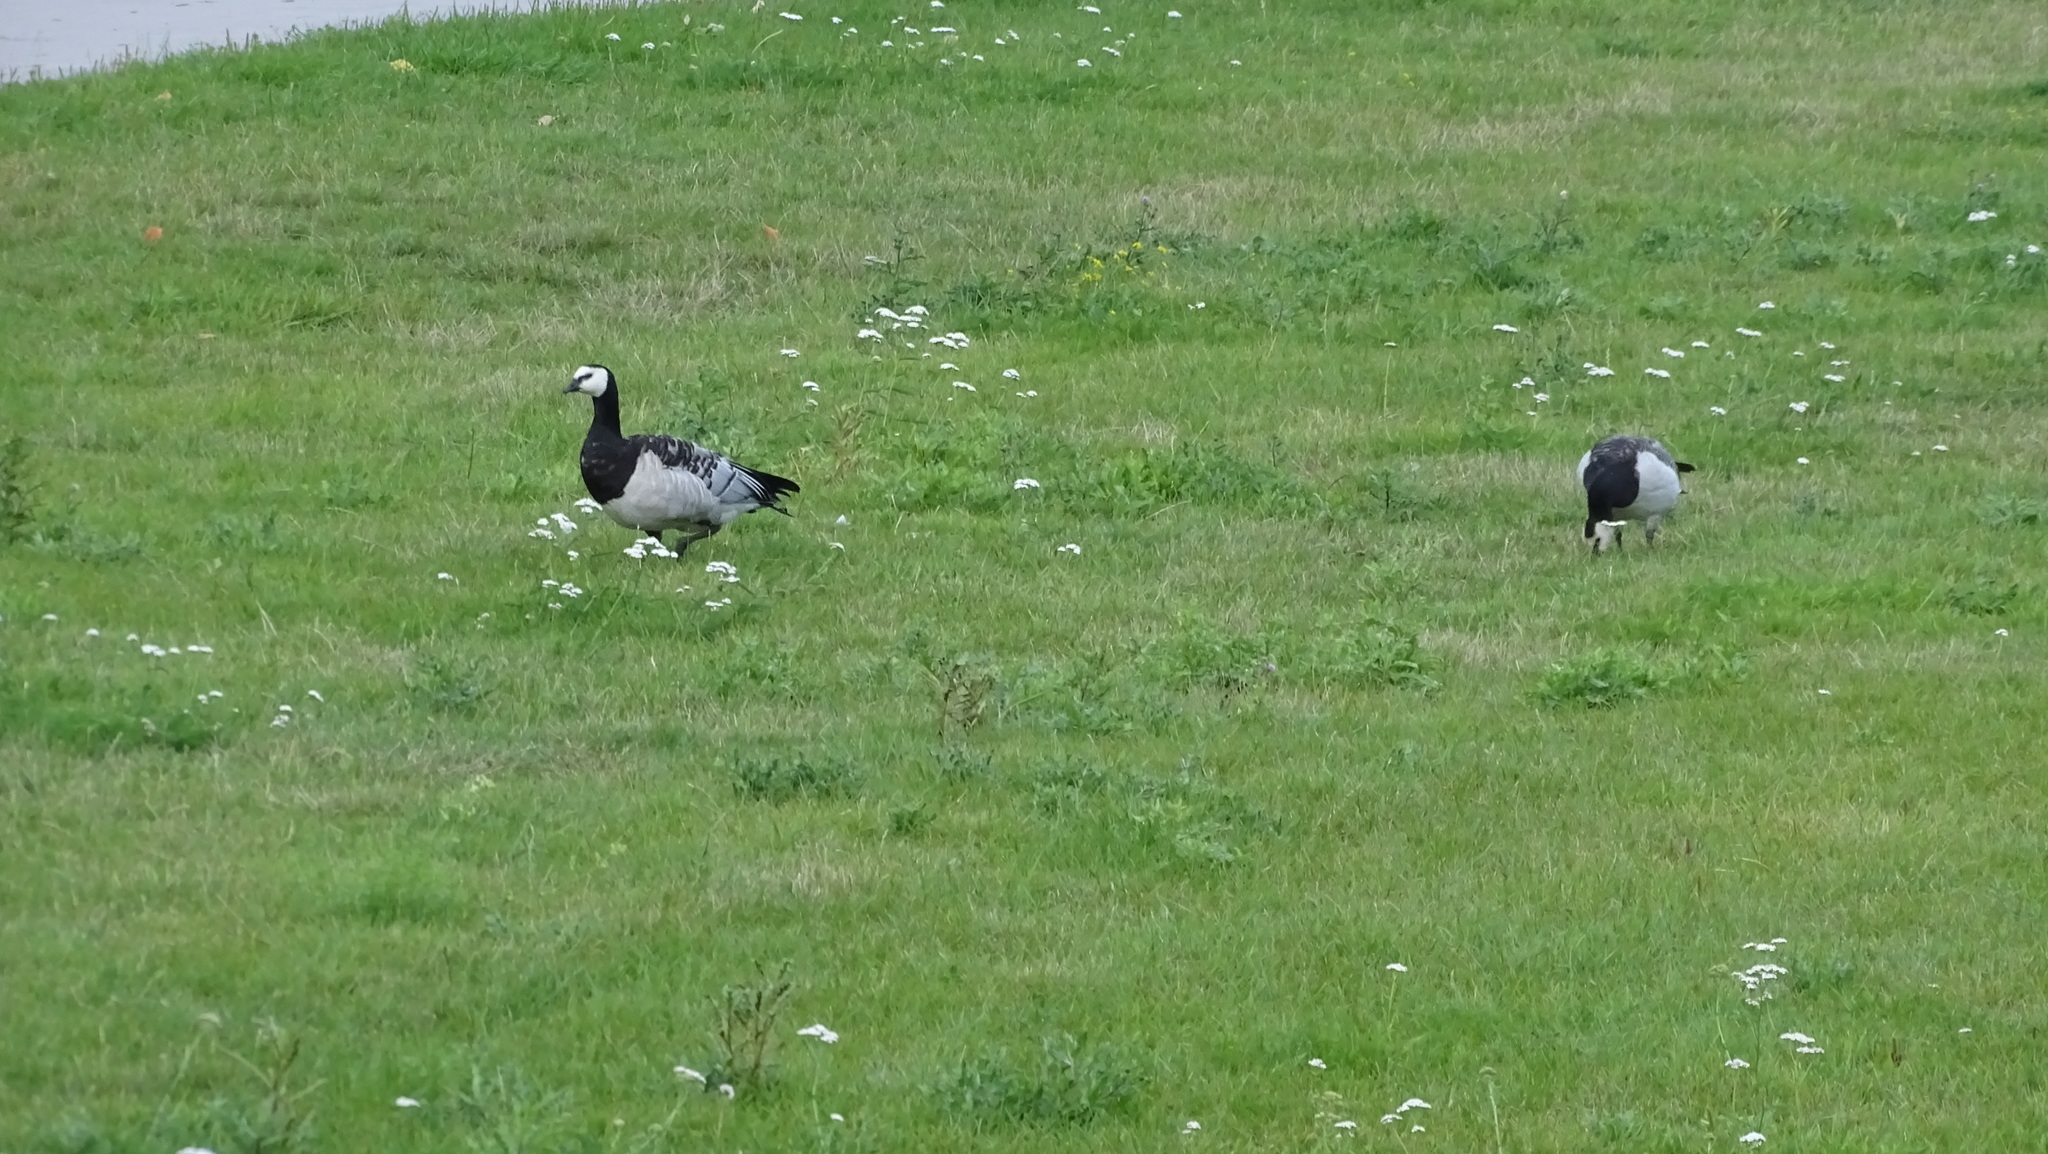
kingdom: Animalia
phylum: Chordata
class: Aves
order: Anseriformes
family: Anatidae
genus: Branta
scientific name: Branta leucopsis
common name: Barnacle goose
